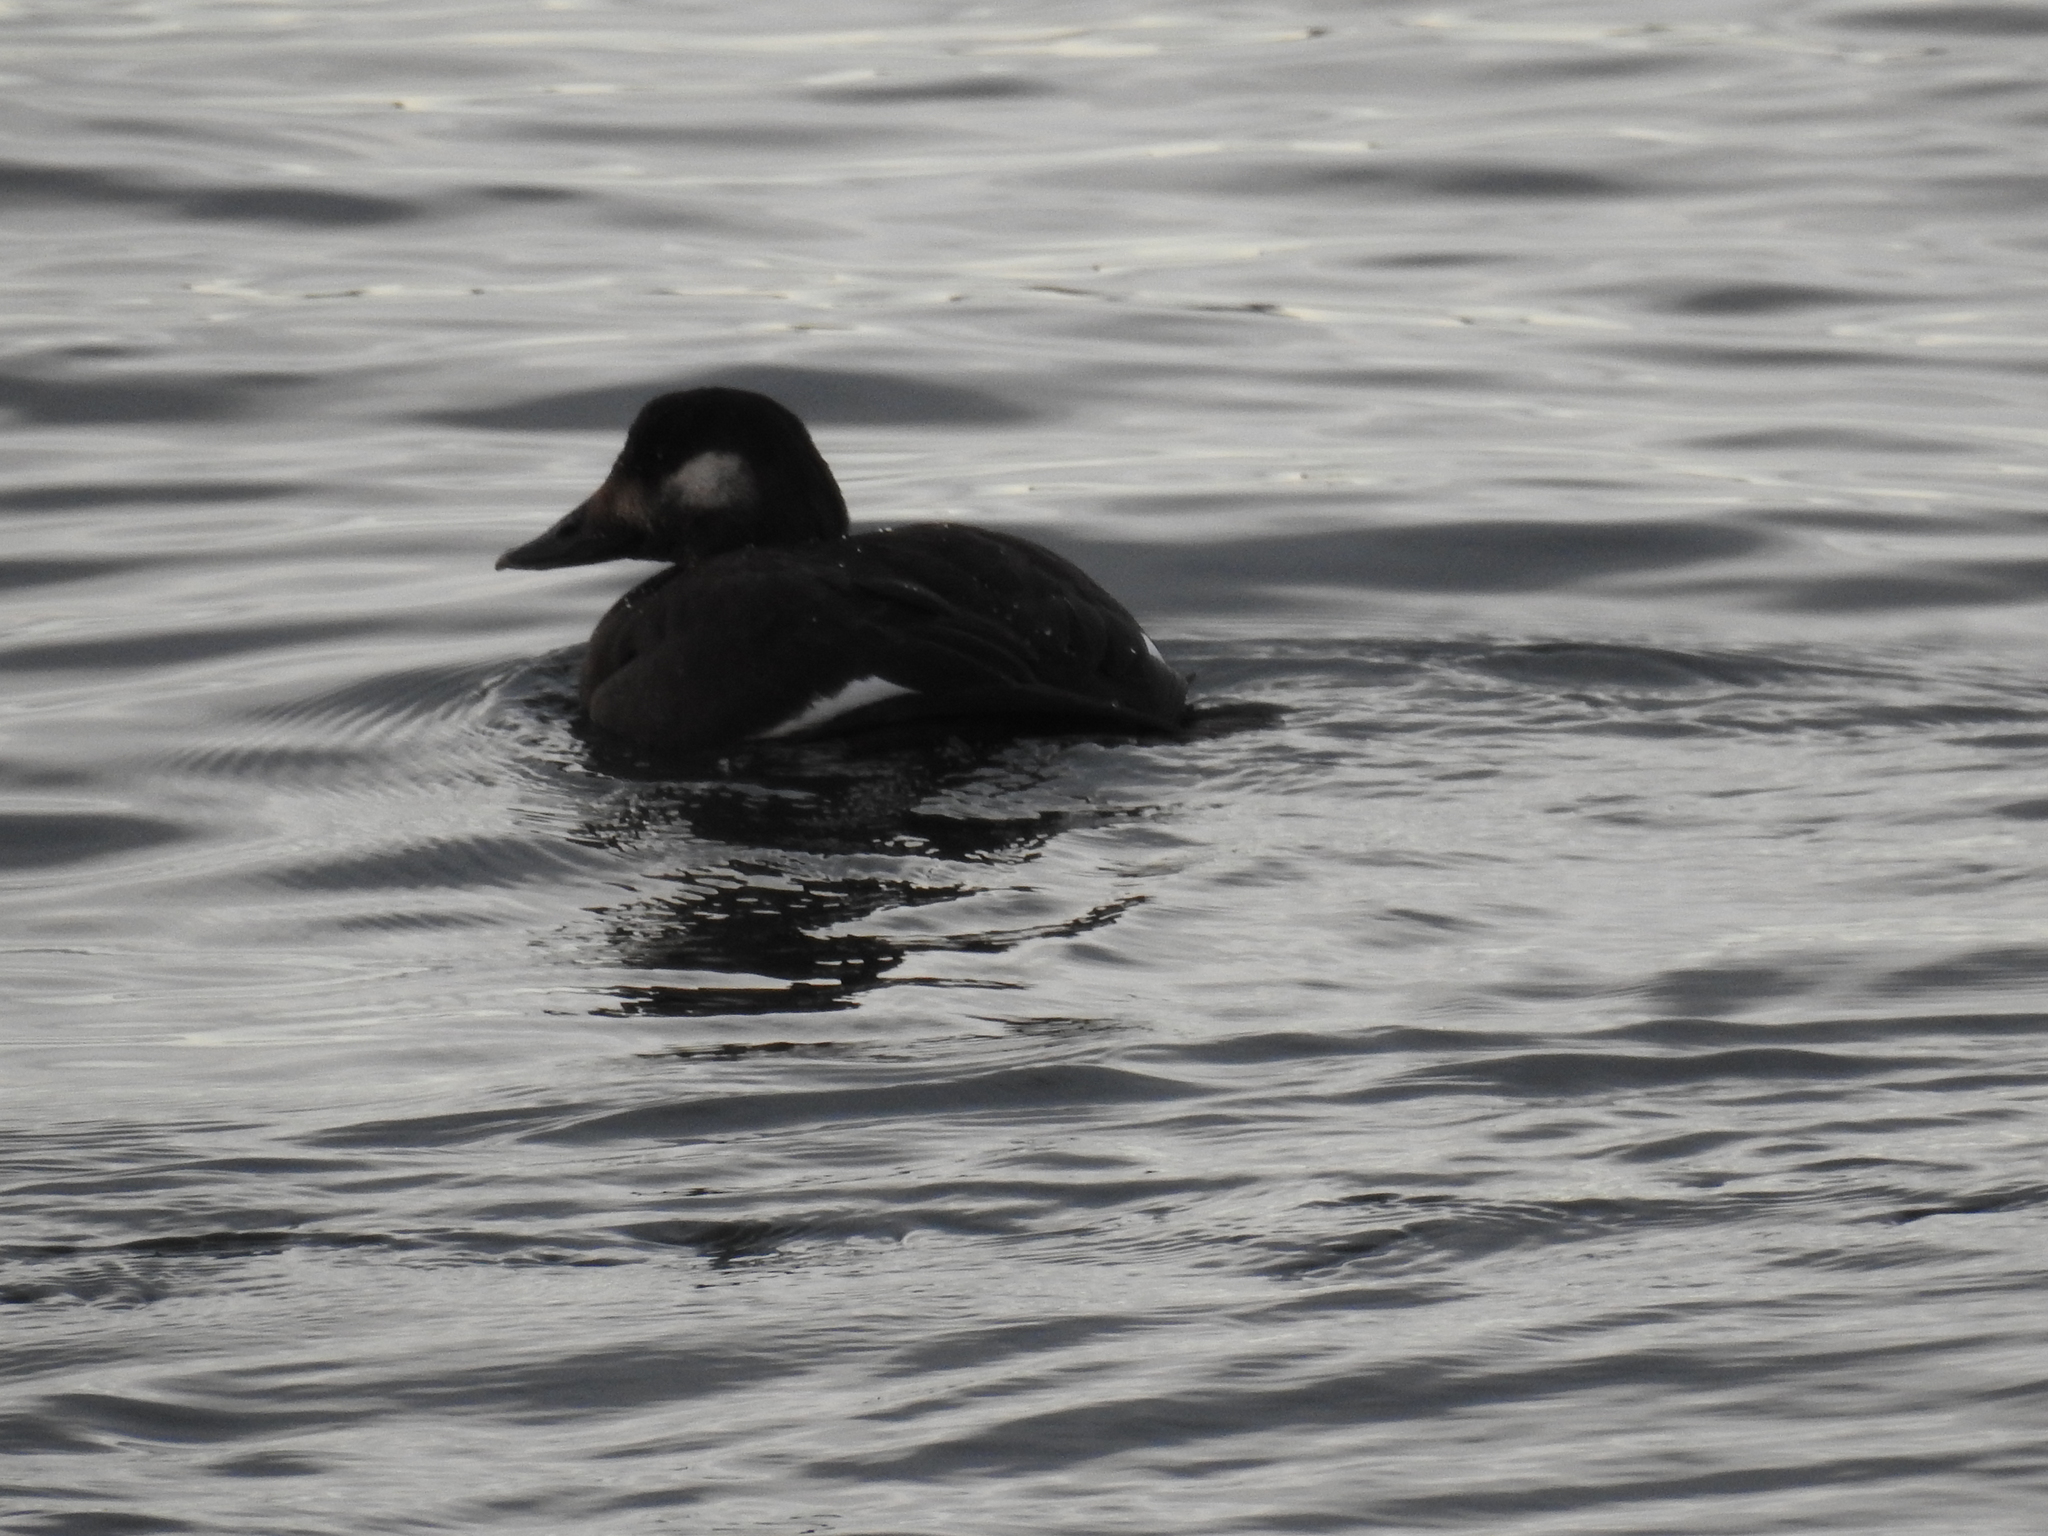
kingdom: Animalia
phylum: Chordata
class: Aves
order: Anseriformes
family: Anatidae
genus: Melanitta
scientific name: Melanitta deglandi
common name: White-winged scoter
